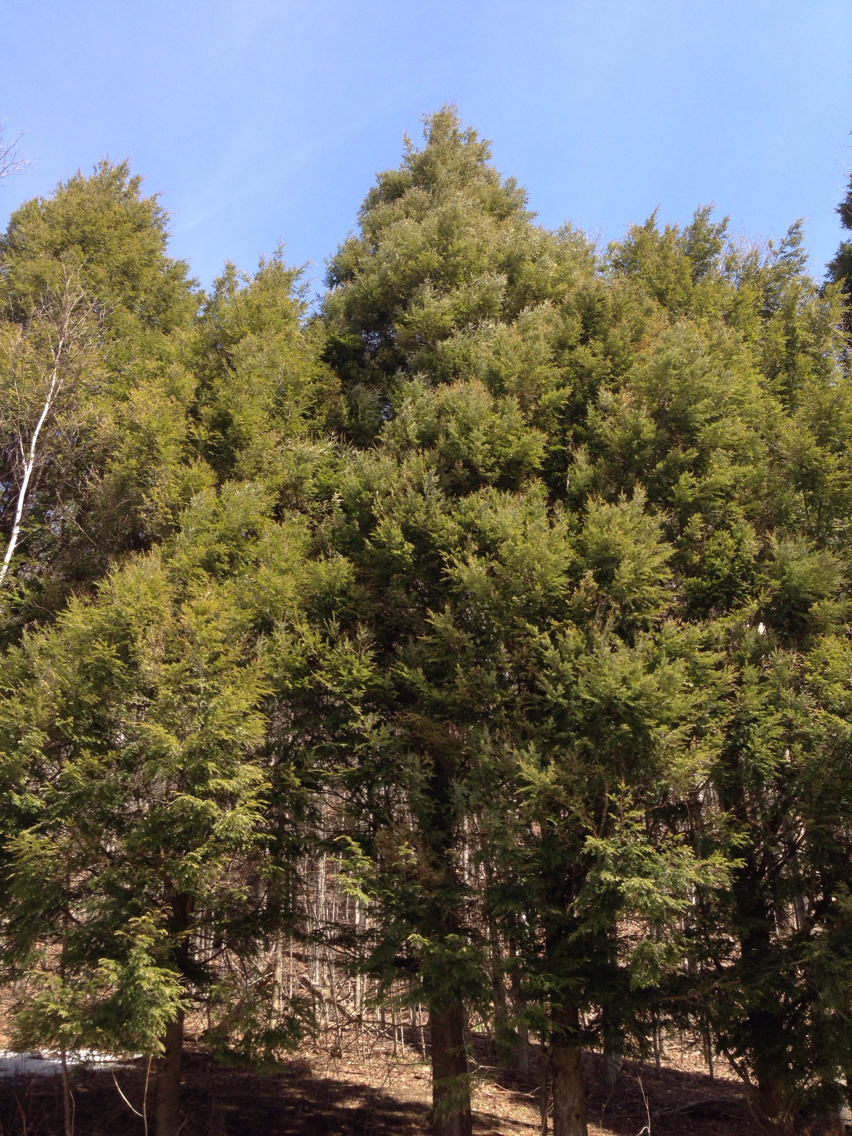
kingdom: Plantae
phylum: Tracheophyta
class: Pinopsida
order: Pinales
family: Pinaceae
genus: Tsuga
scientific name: Tsuga canadensis
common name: Eastern hemlock
